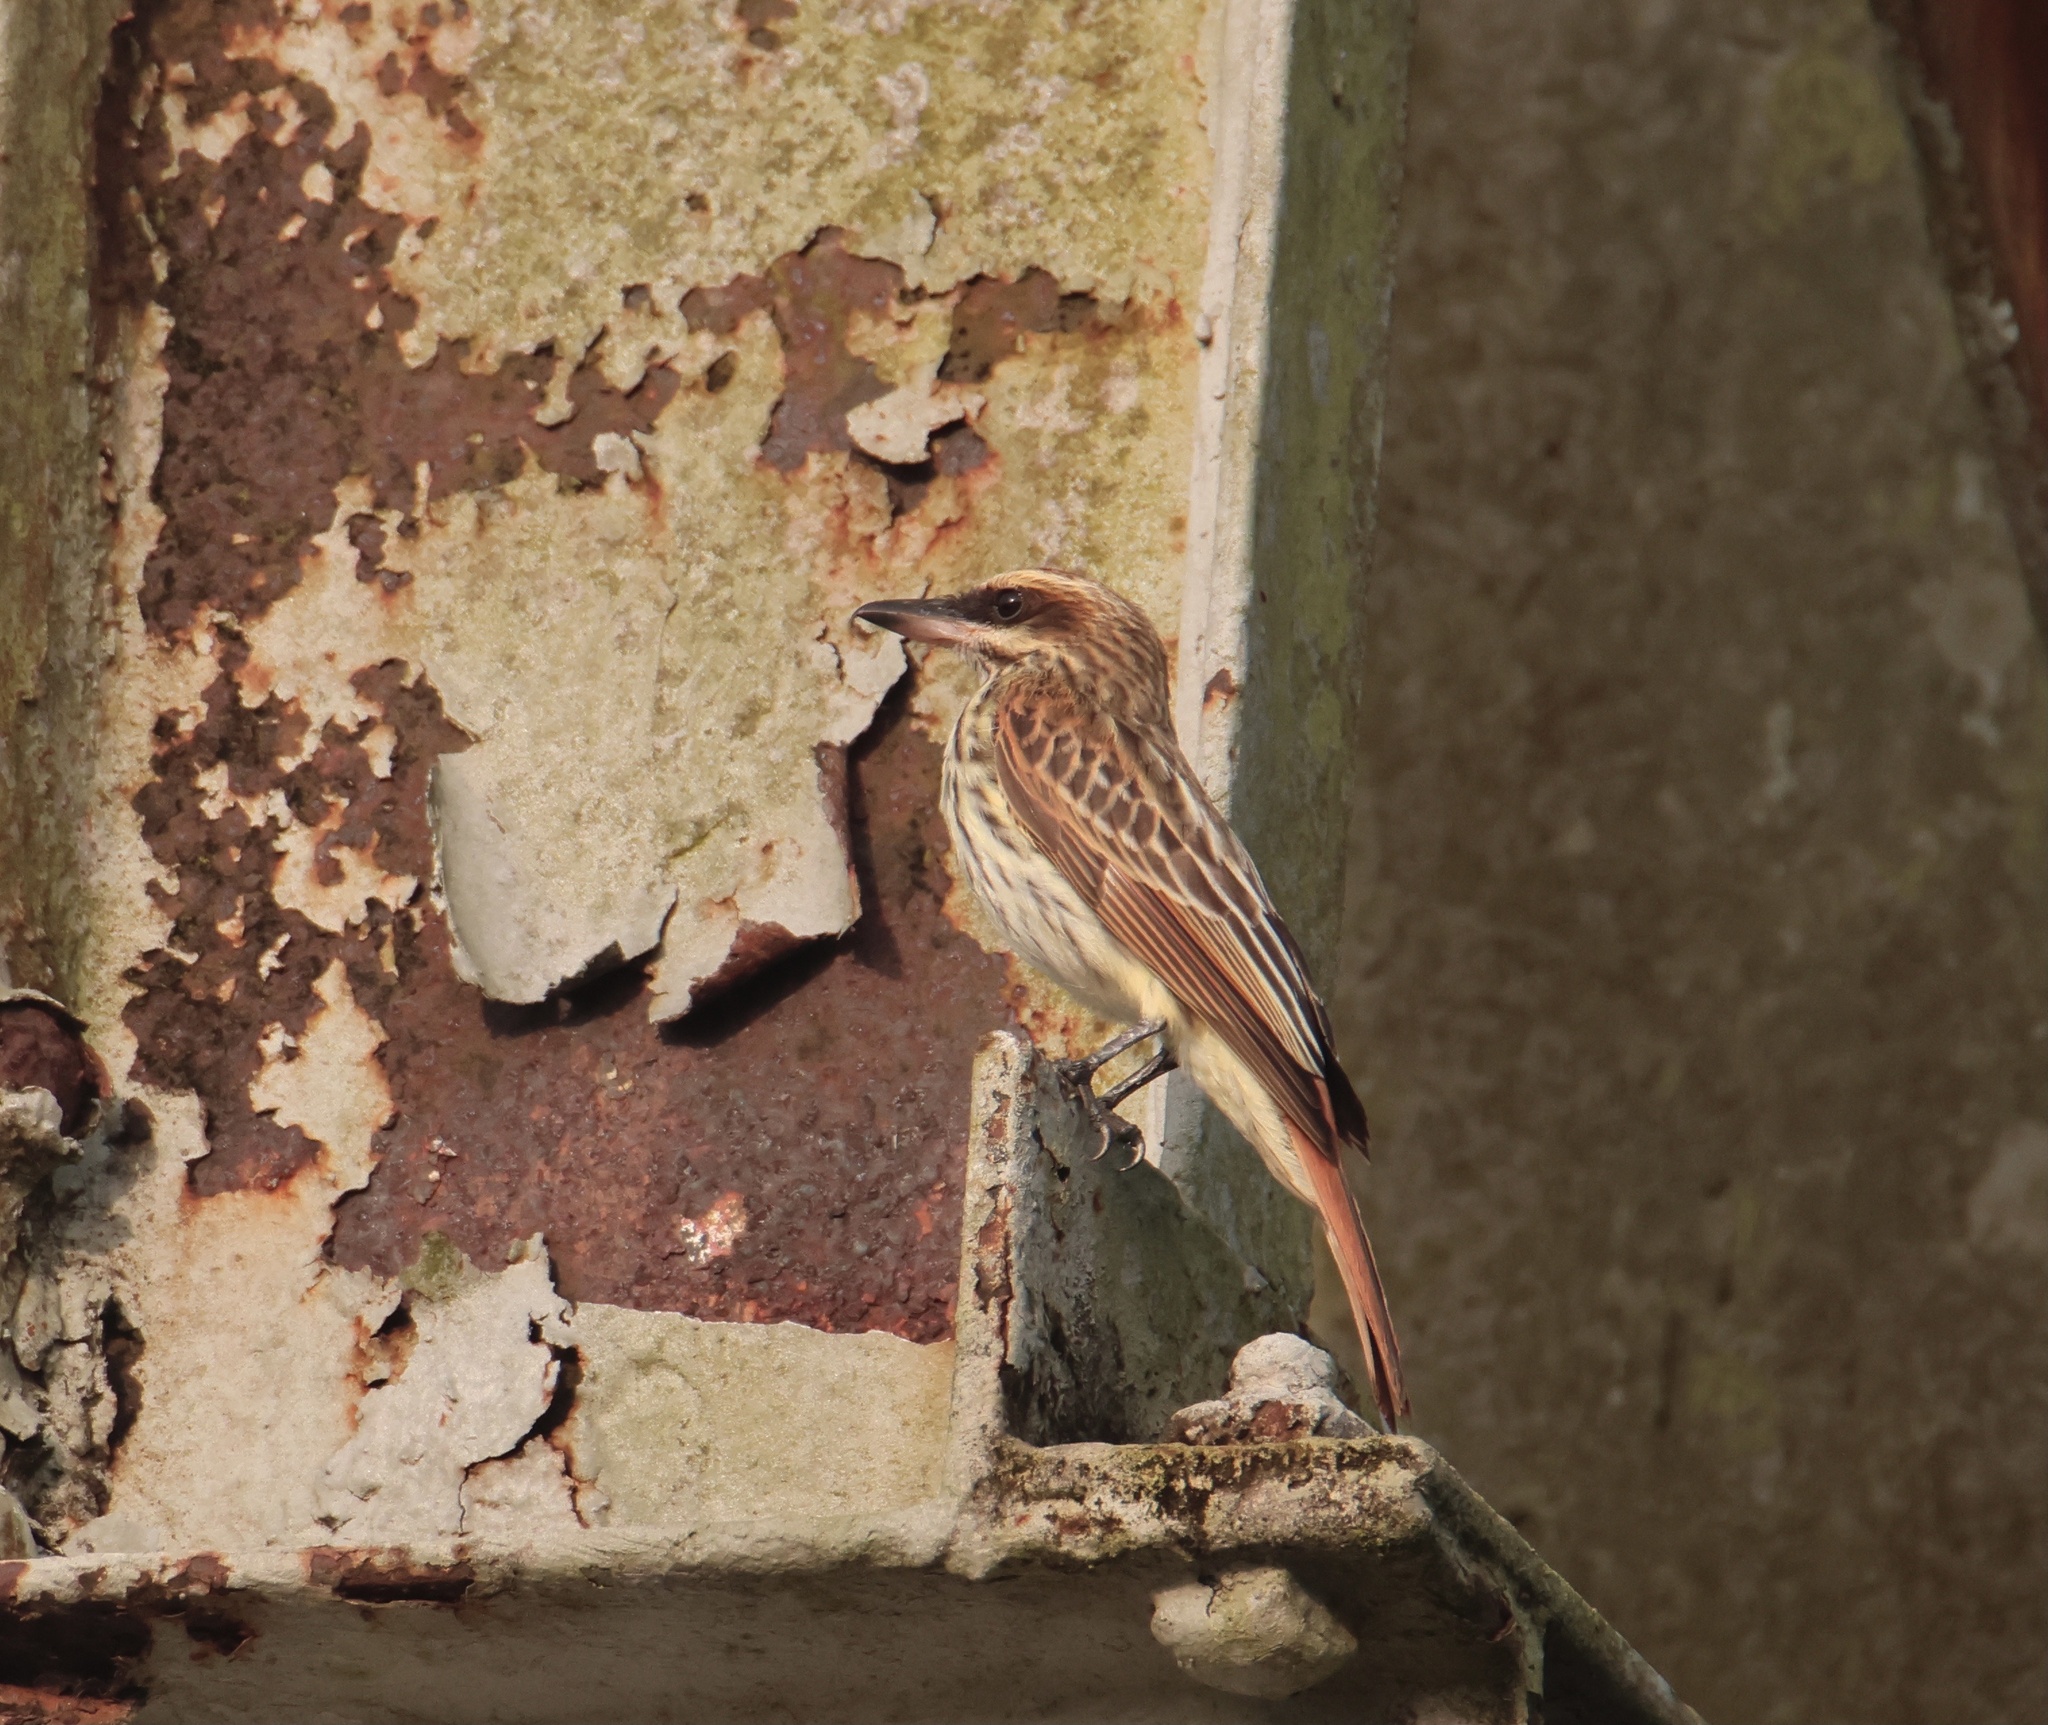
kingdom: Animalia
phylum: Chordata
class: Aves
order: Passeriformes
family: Tyrannidae
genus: Myiodynastes
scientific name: Myiodynastes maculatus
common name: Streaked flycatcher
